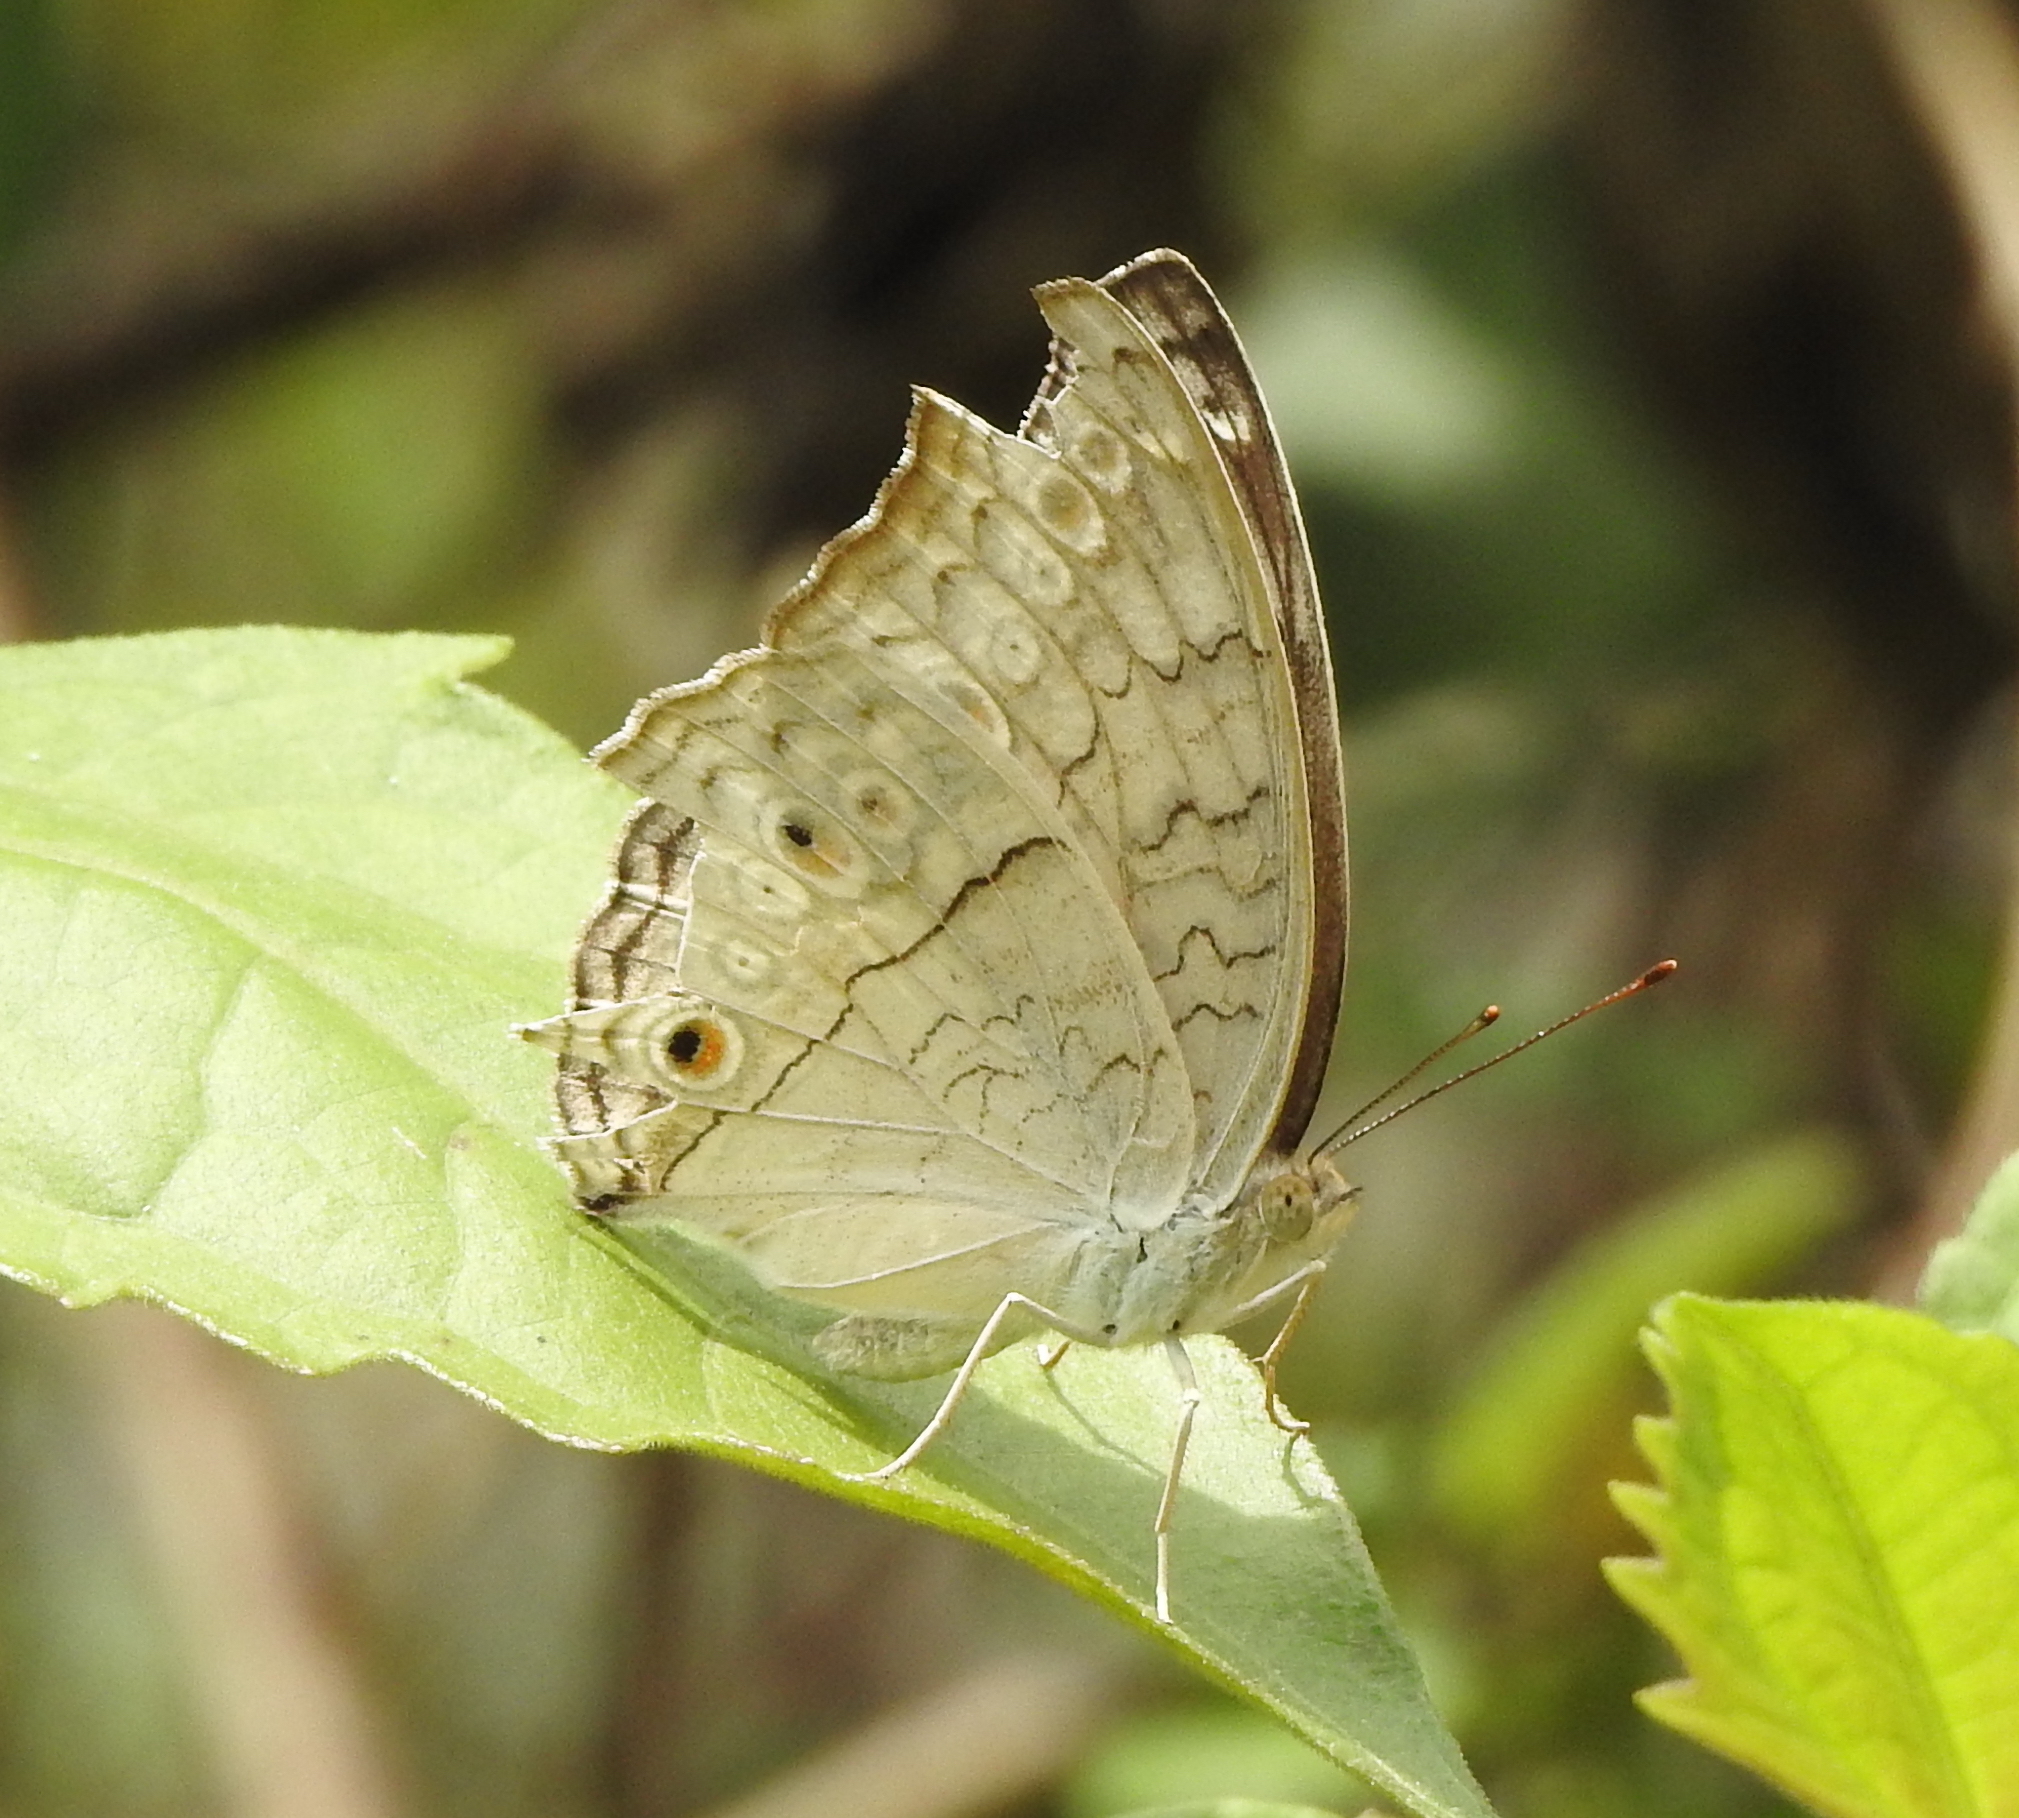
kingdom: Animalia
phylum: Arthropoda
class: Insecta
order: Lepidoptera
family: Nymphalidae
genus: Junonia
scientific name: Junonia atlites
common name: Grey pansy
